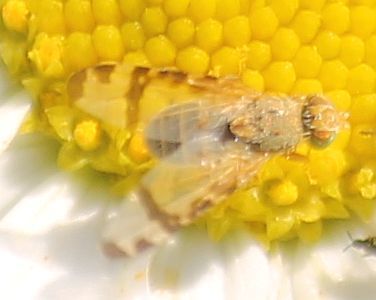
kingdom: Animalia
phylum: Arthropoda
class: Insecta
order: Diptera
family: Tephritidae
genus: Sphenella
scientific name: Sphenella marginata
